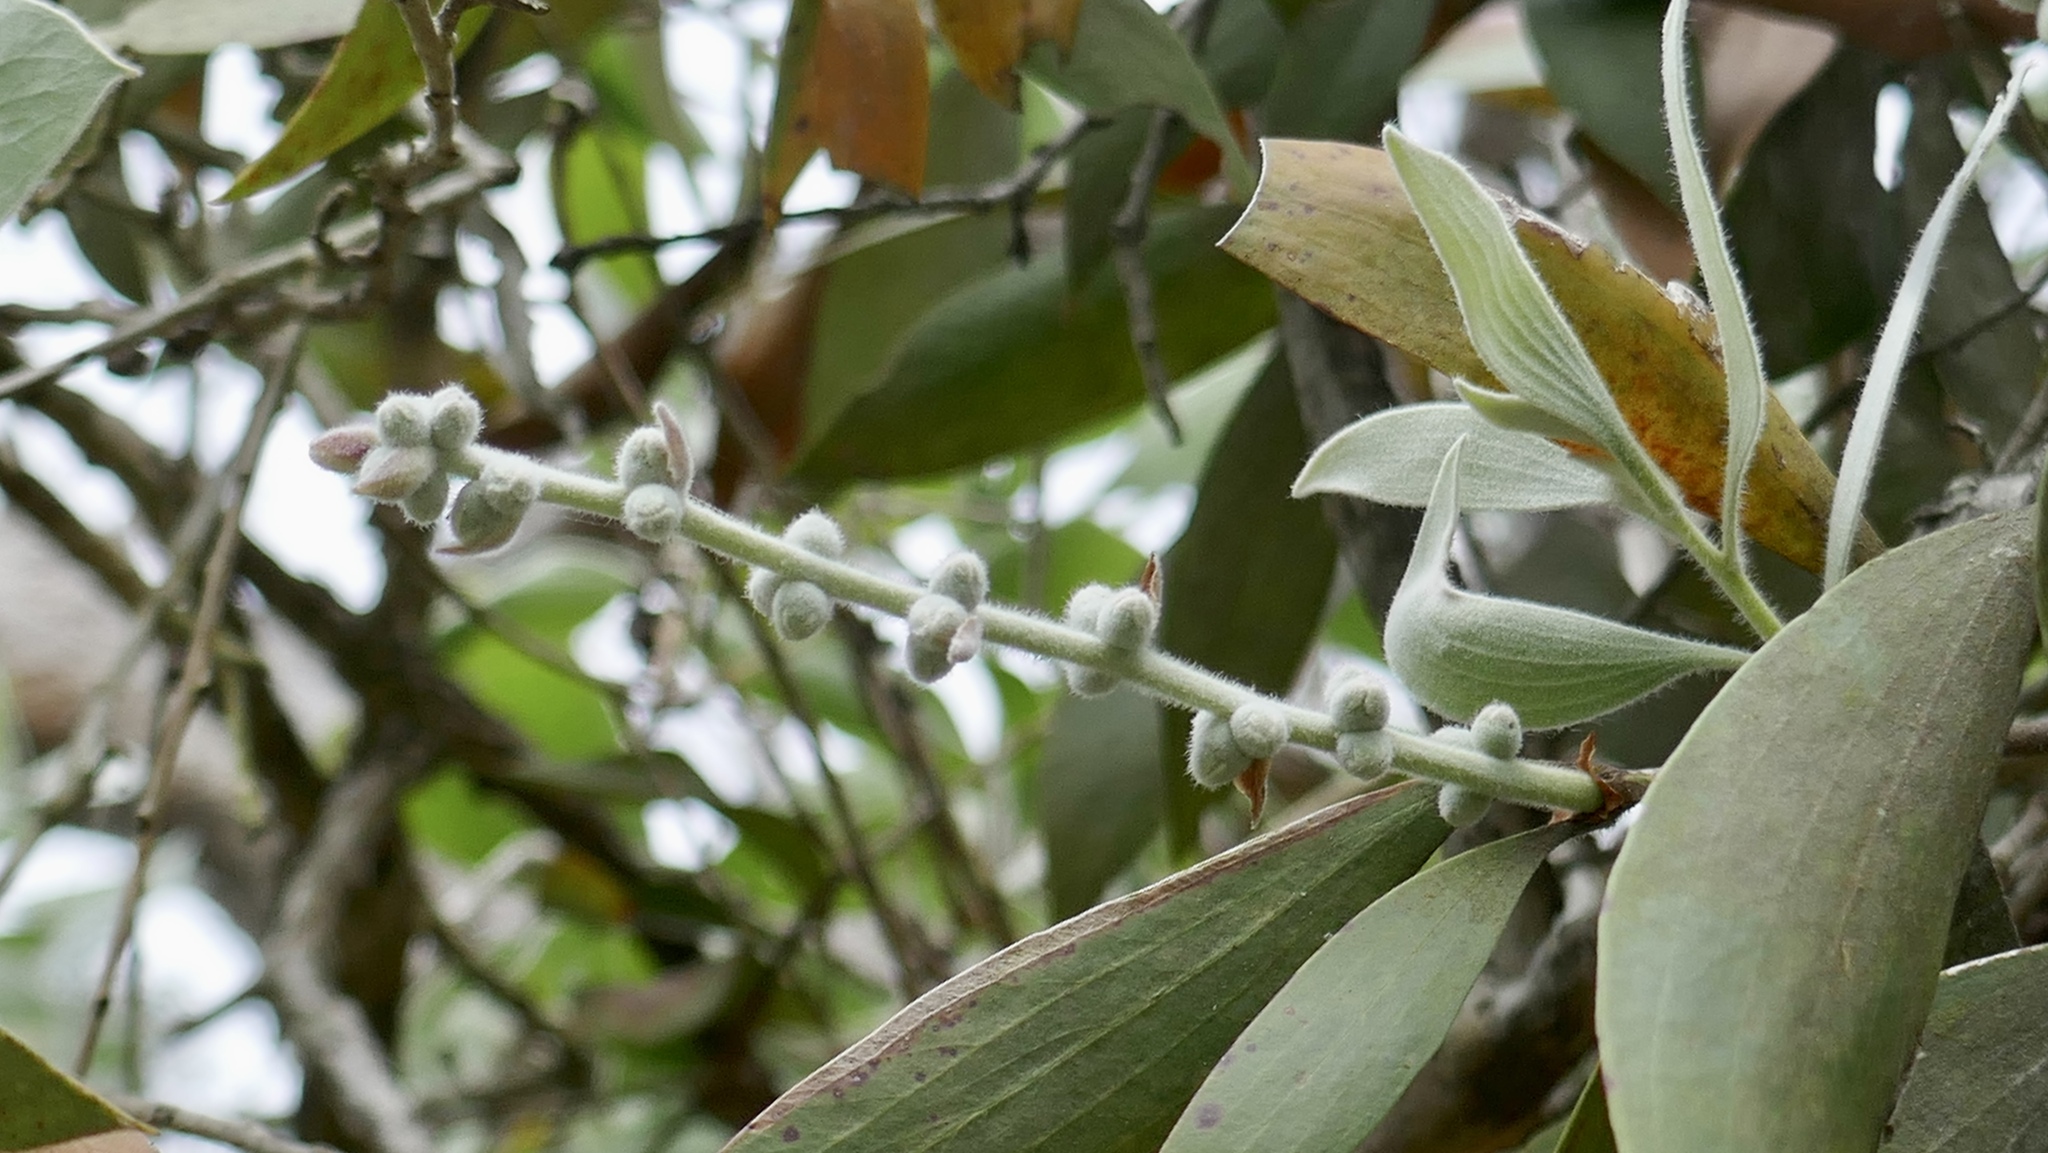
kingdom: Plantae
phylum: Tracheophyta
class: Magnoliopsida
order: Myrtales
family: Myrtaceae
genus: Melaleuca
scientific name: Melaleuca dealbata
